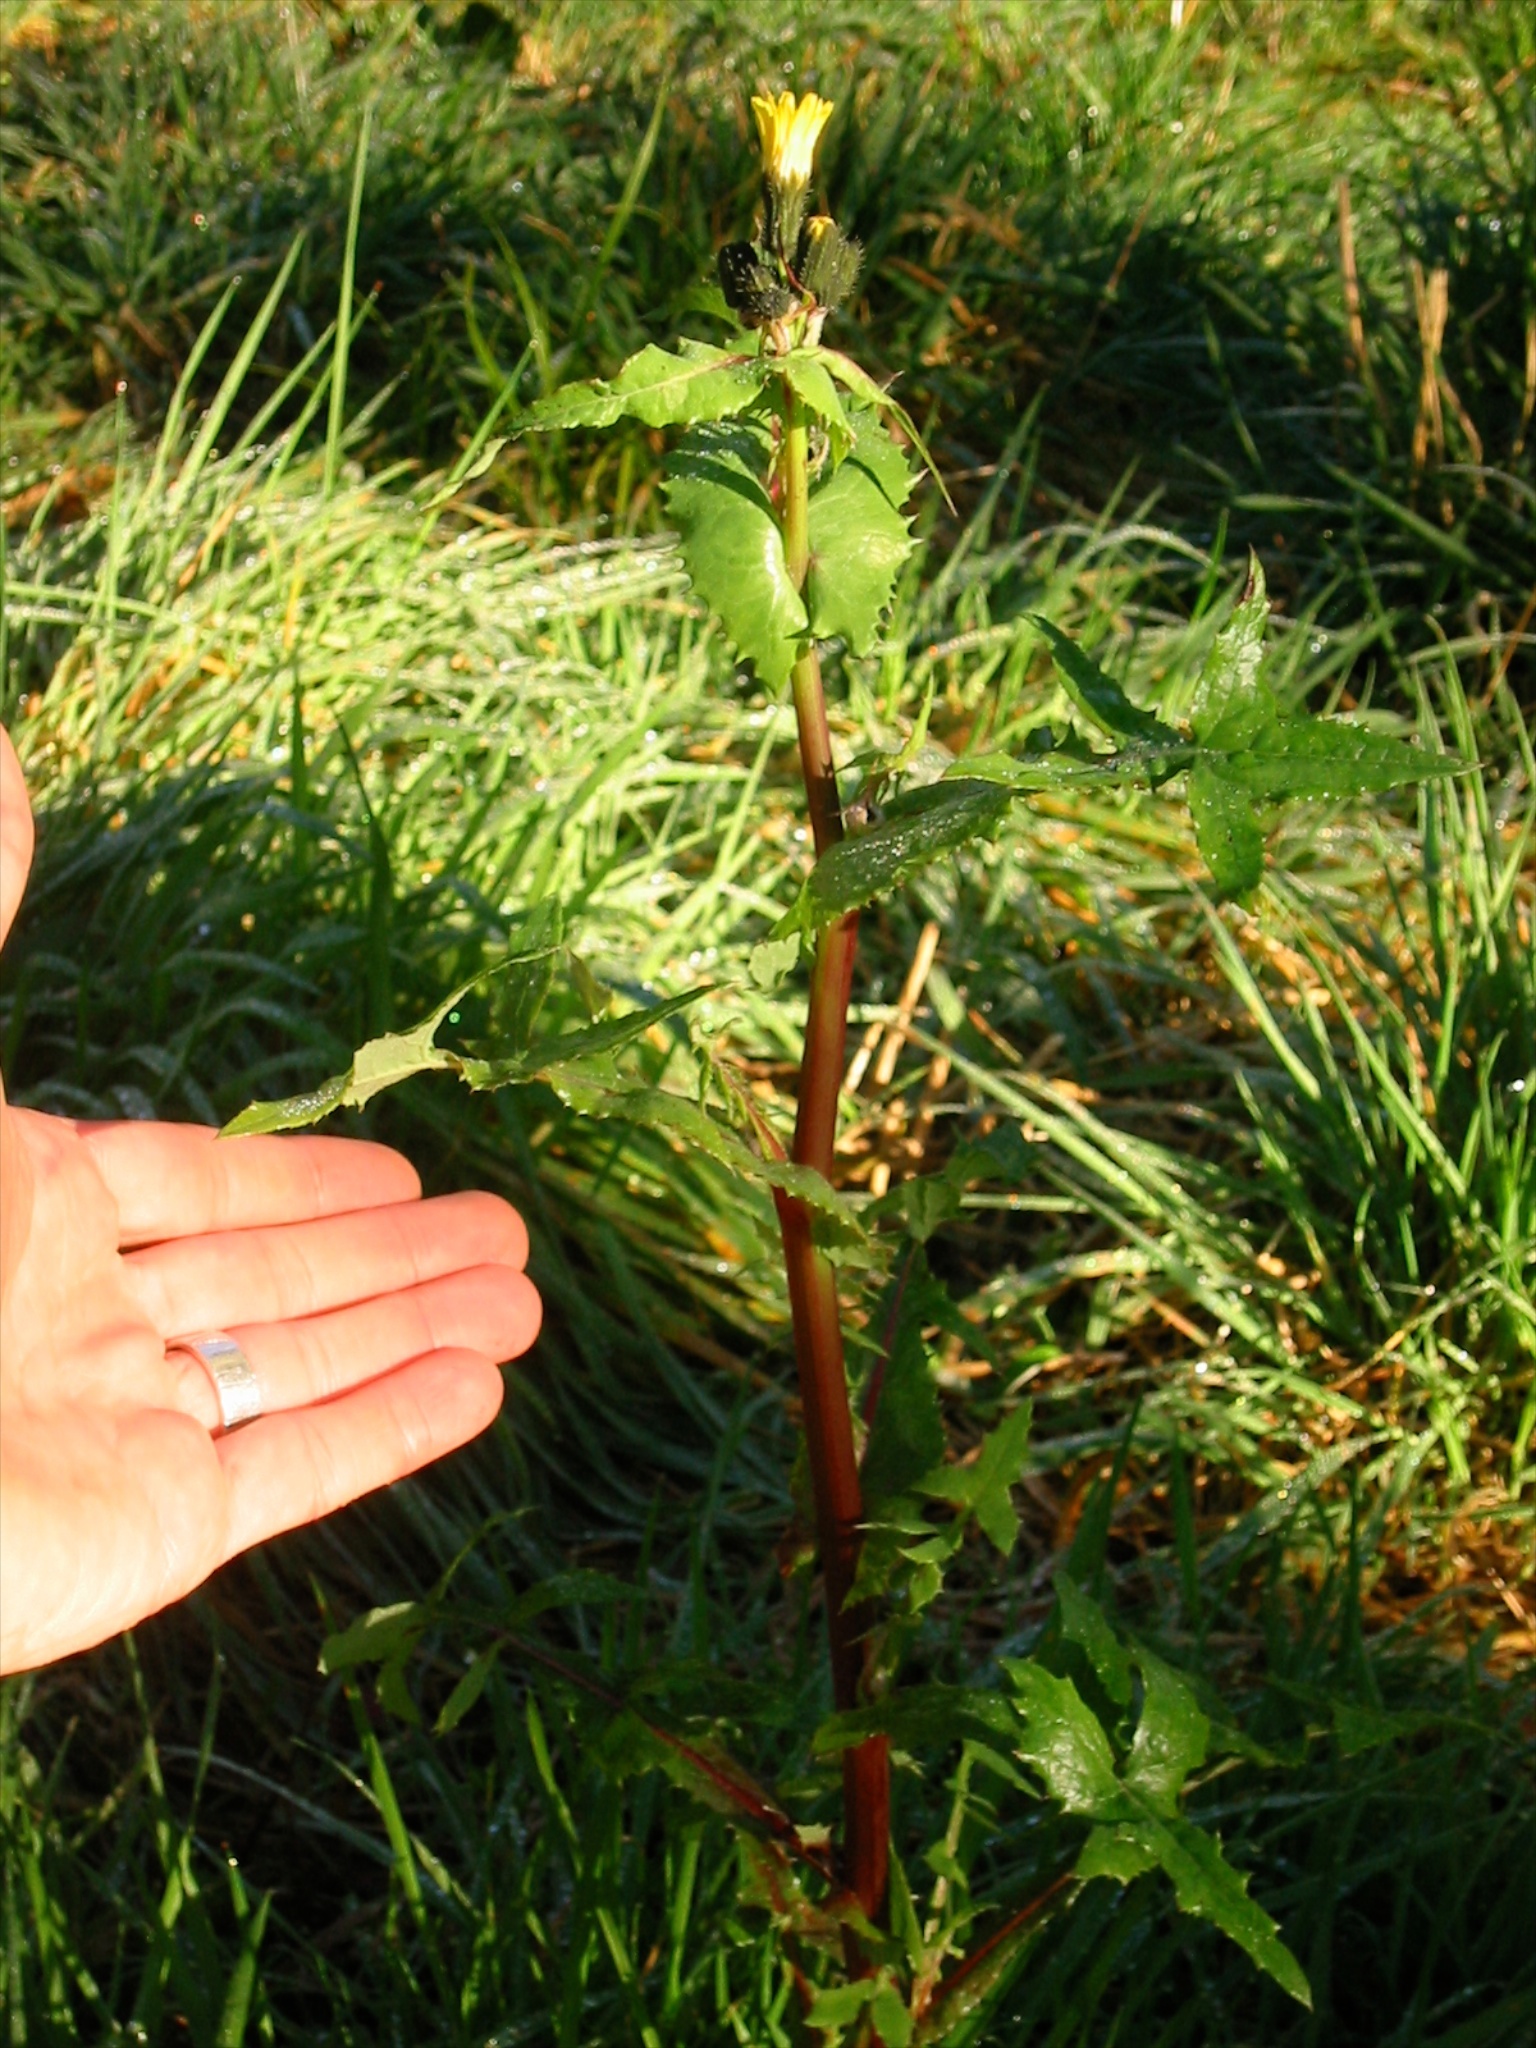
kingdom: Plantae
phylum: Tracheophyta
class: Magnoliopsida
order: Asterales
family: Asteraceae
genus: Sonchus
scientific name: Sonchus oleraceus
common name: Common sowthistle
